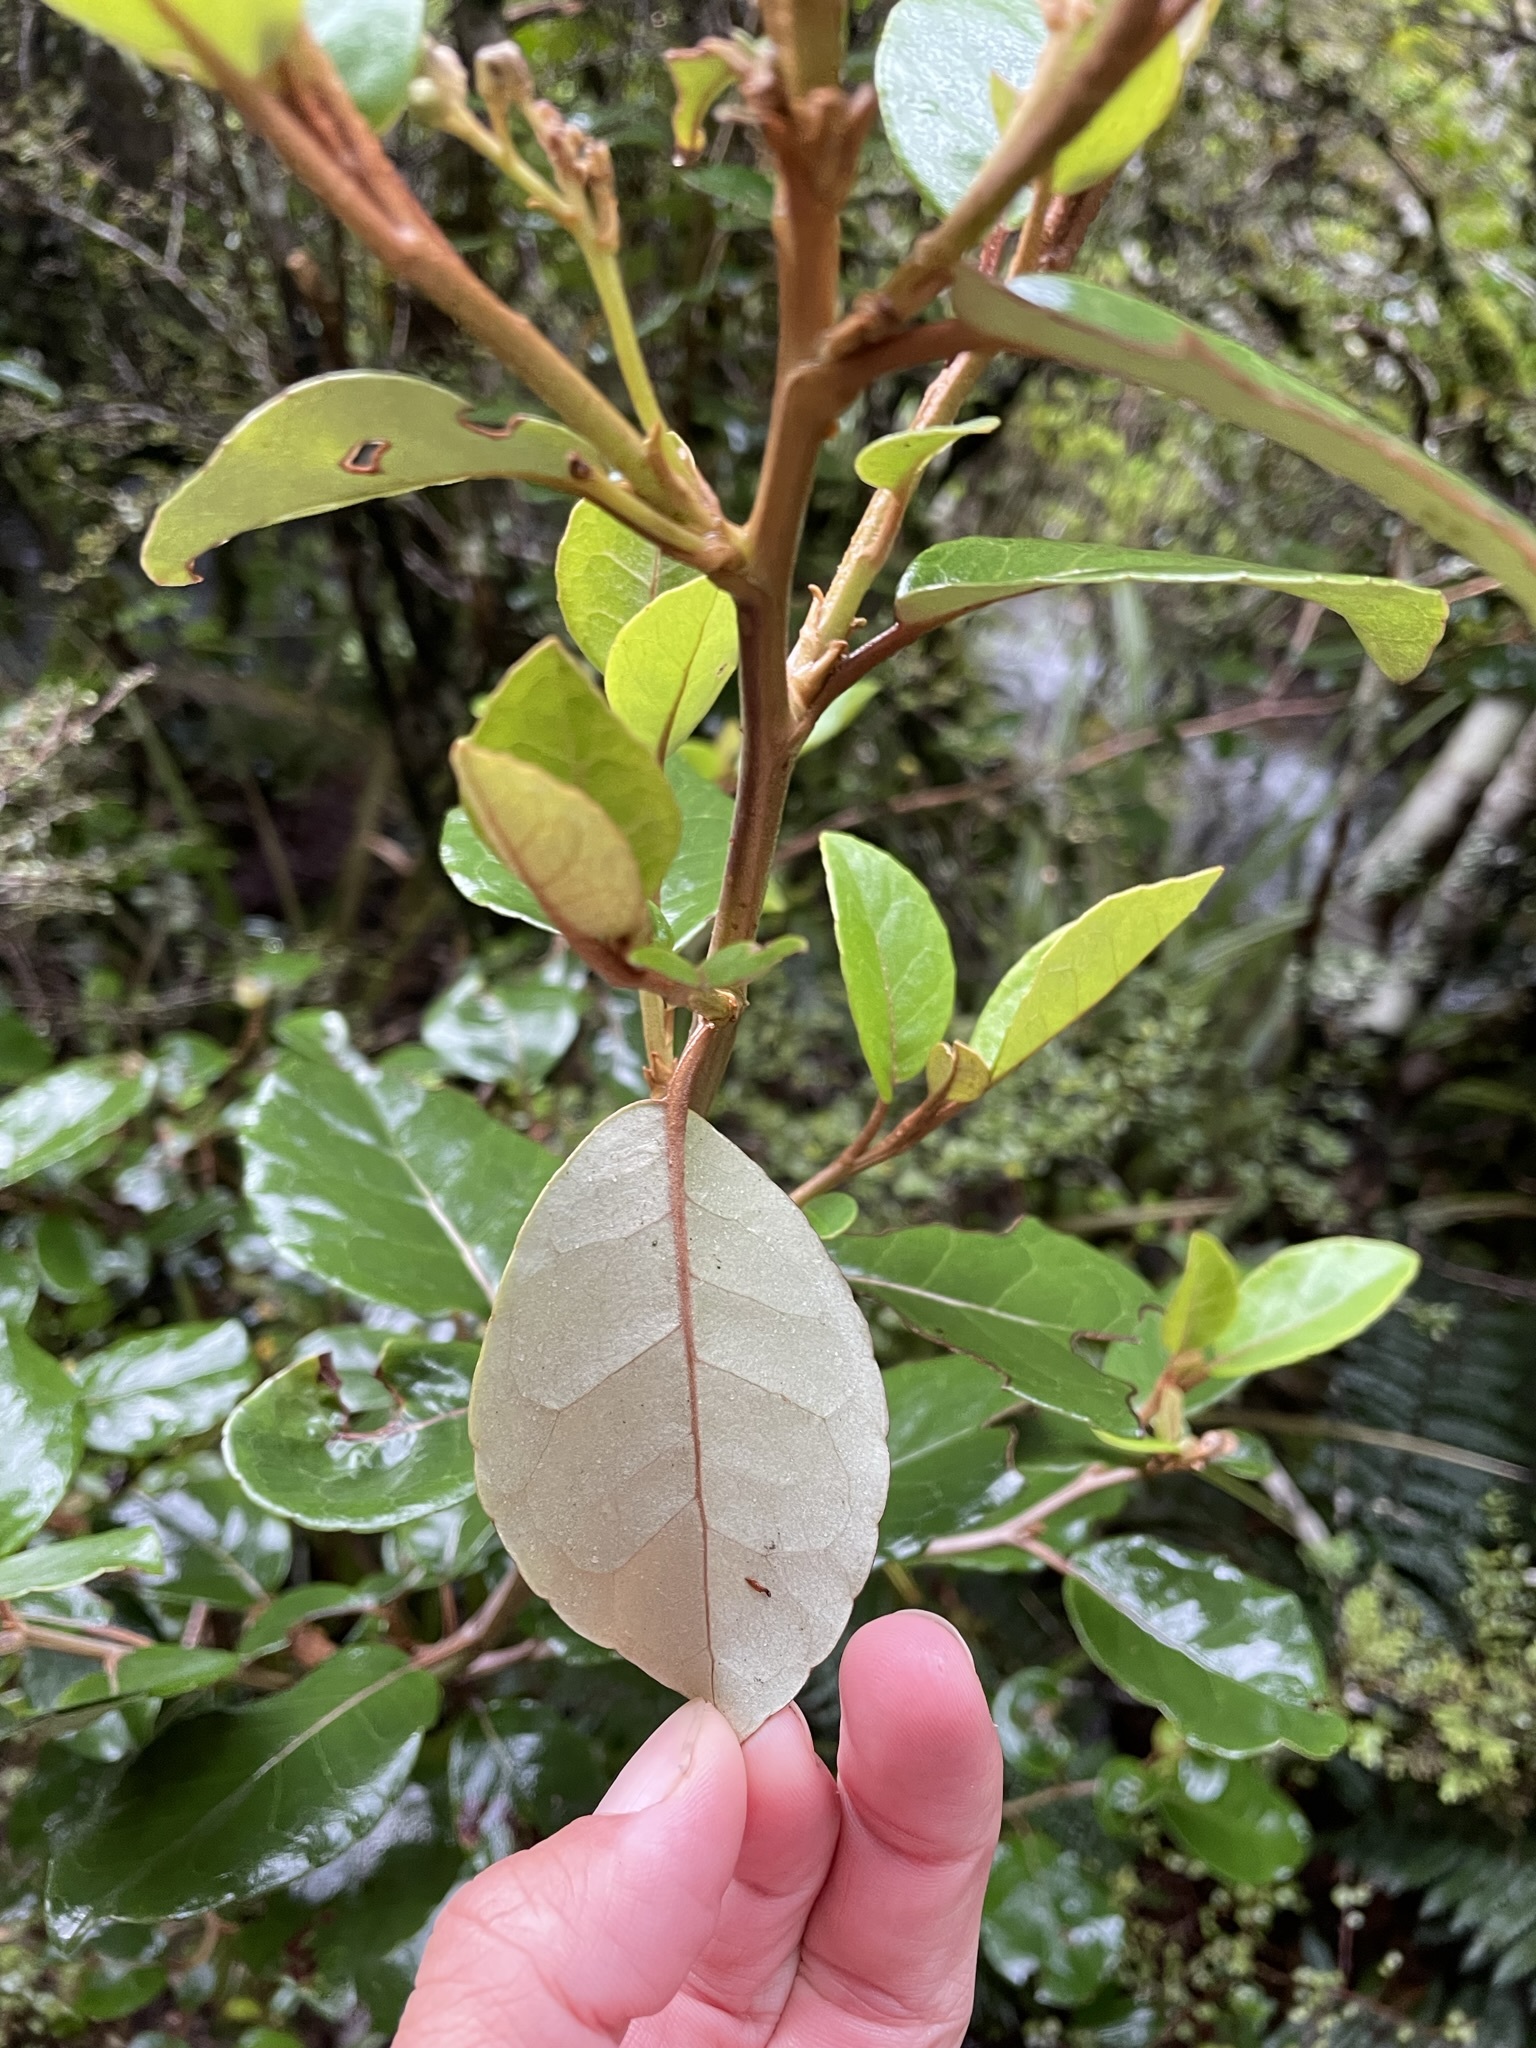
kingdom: Plantae
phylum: Tracheophyta
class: Magnoliopsida
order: Asterales
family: Asteraceae
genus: Olearia
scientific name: Olearia arborescens
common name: Glossy tree daisy
